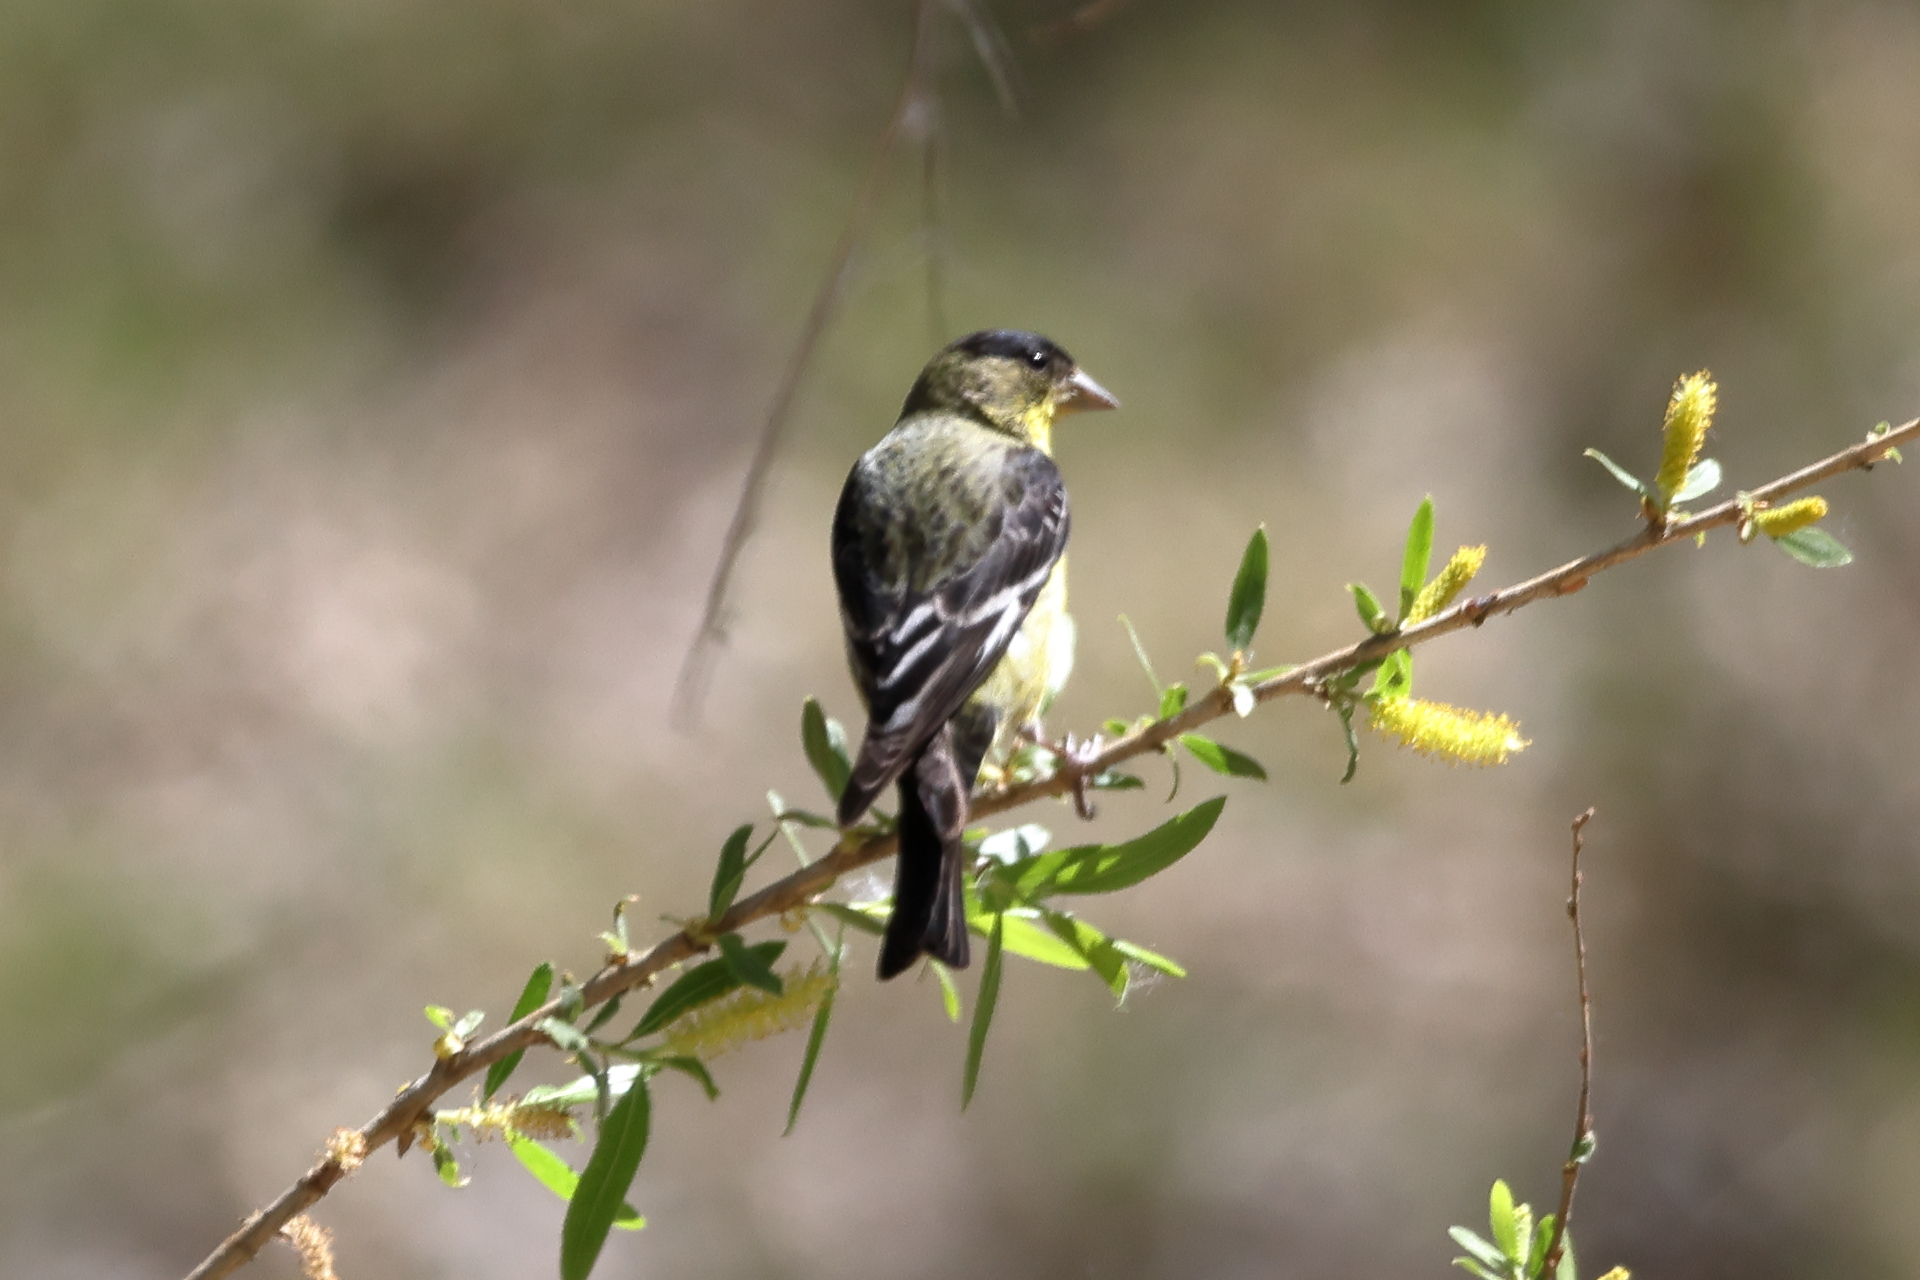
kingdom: Animalia
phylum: Chordata
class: Aves
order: Passeriformes
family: Fringillidae
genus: Spinus
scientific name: Spinus psaltria
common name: Lesser goldfinch
